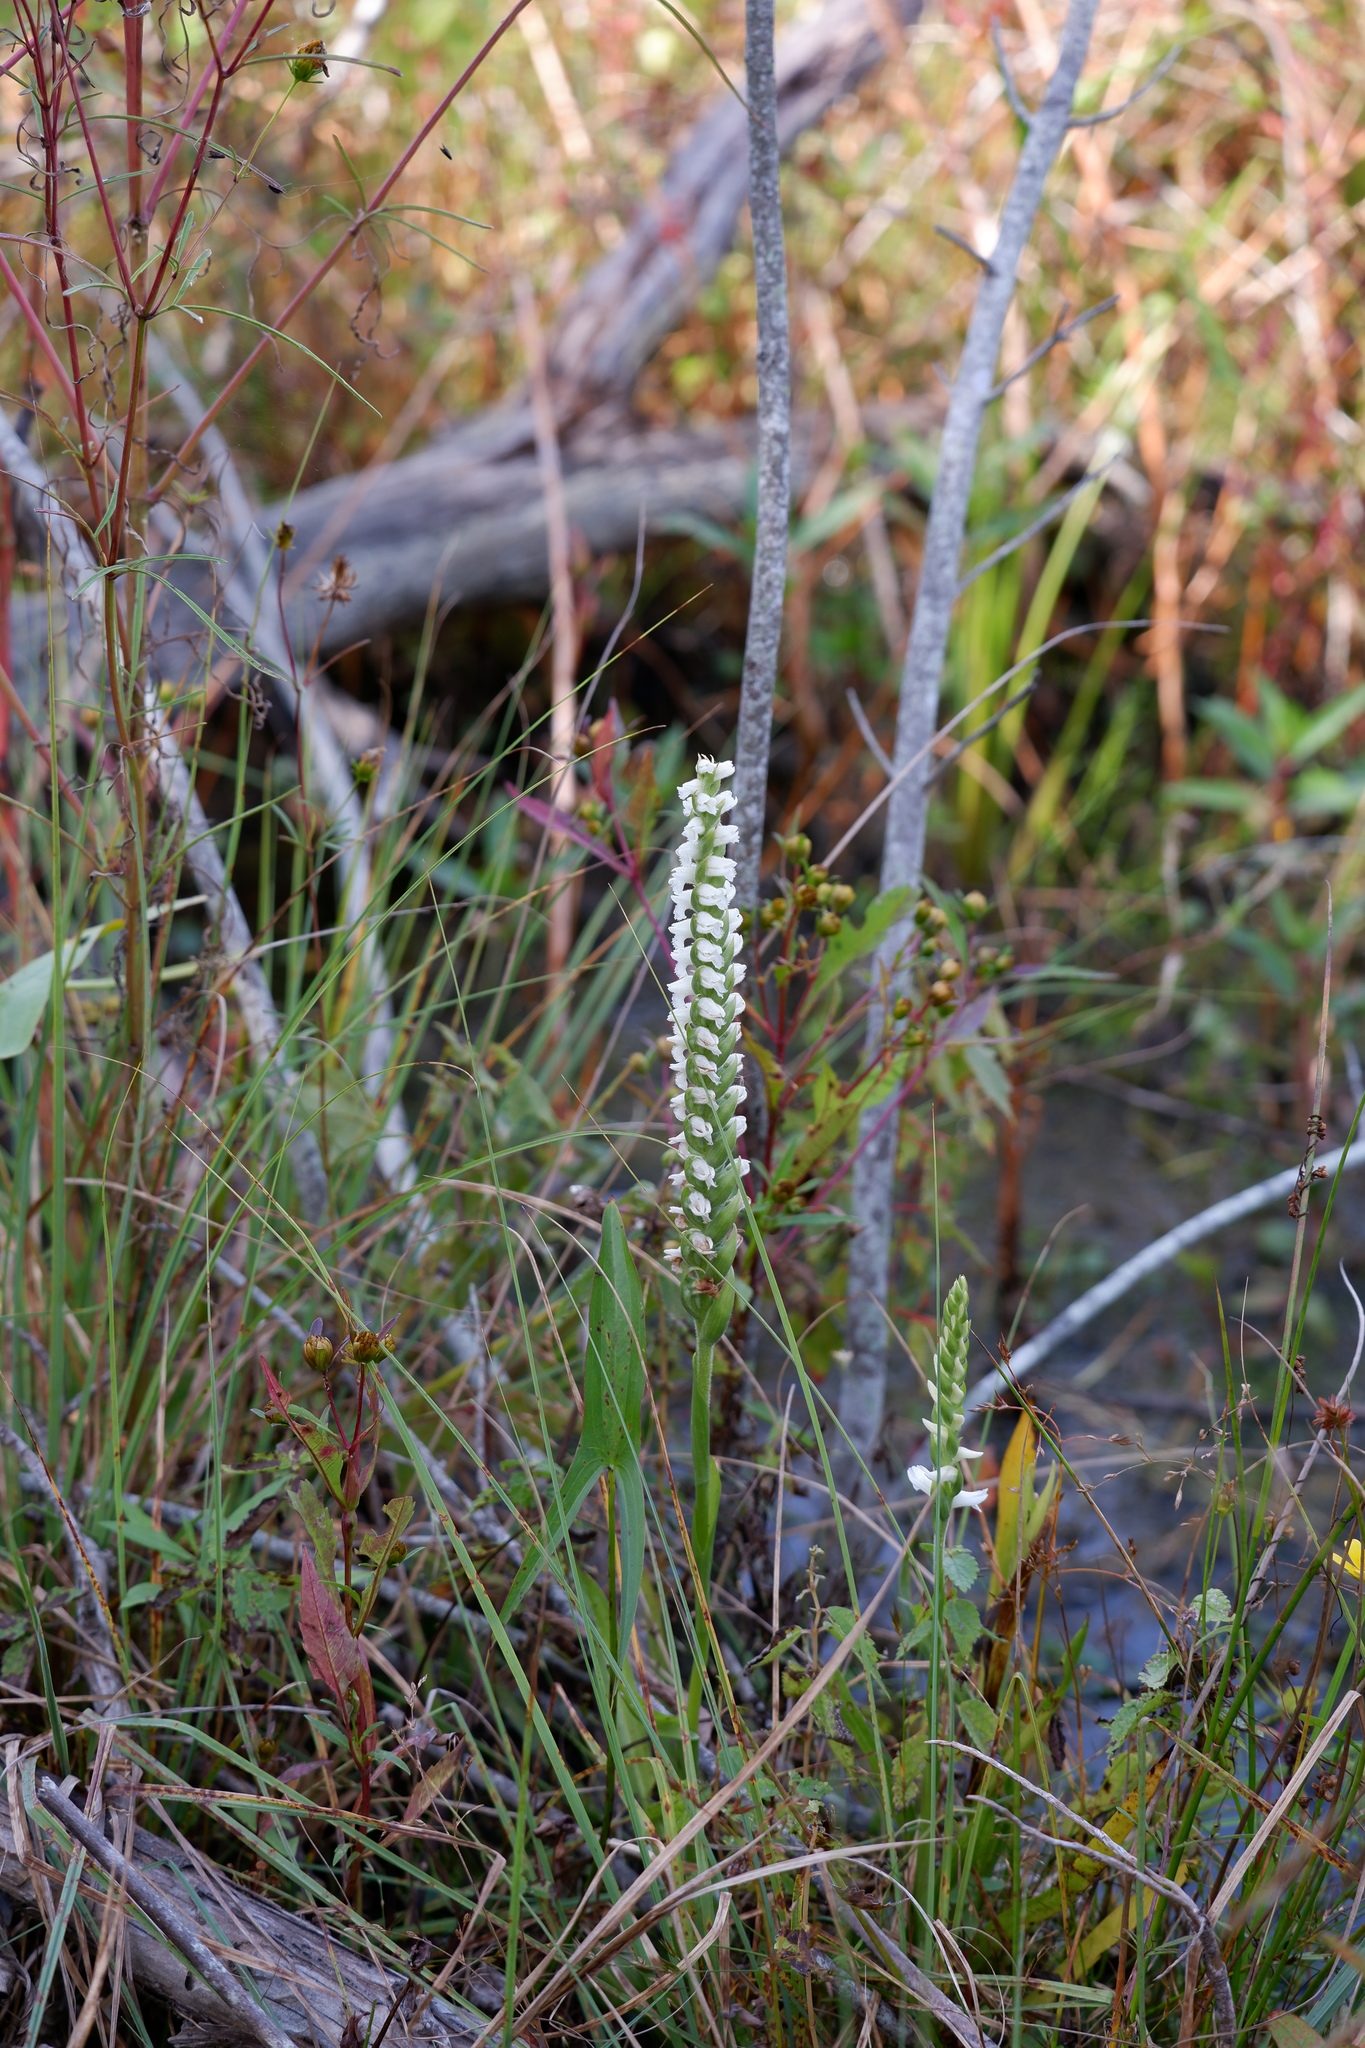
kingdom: Plantae
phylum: Tracheophyta
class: Liliopsida
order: Asparagales
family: Orchidaceae
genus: Spiranthes
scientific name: Spiranthes bightensis
